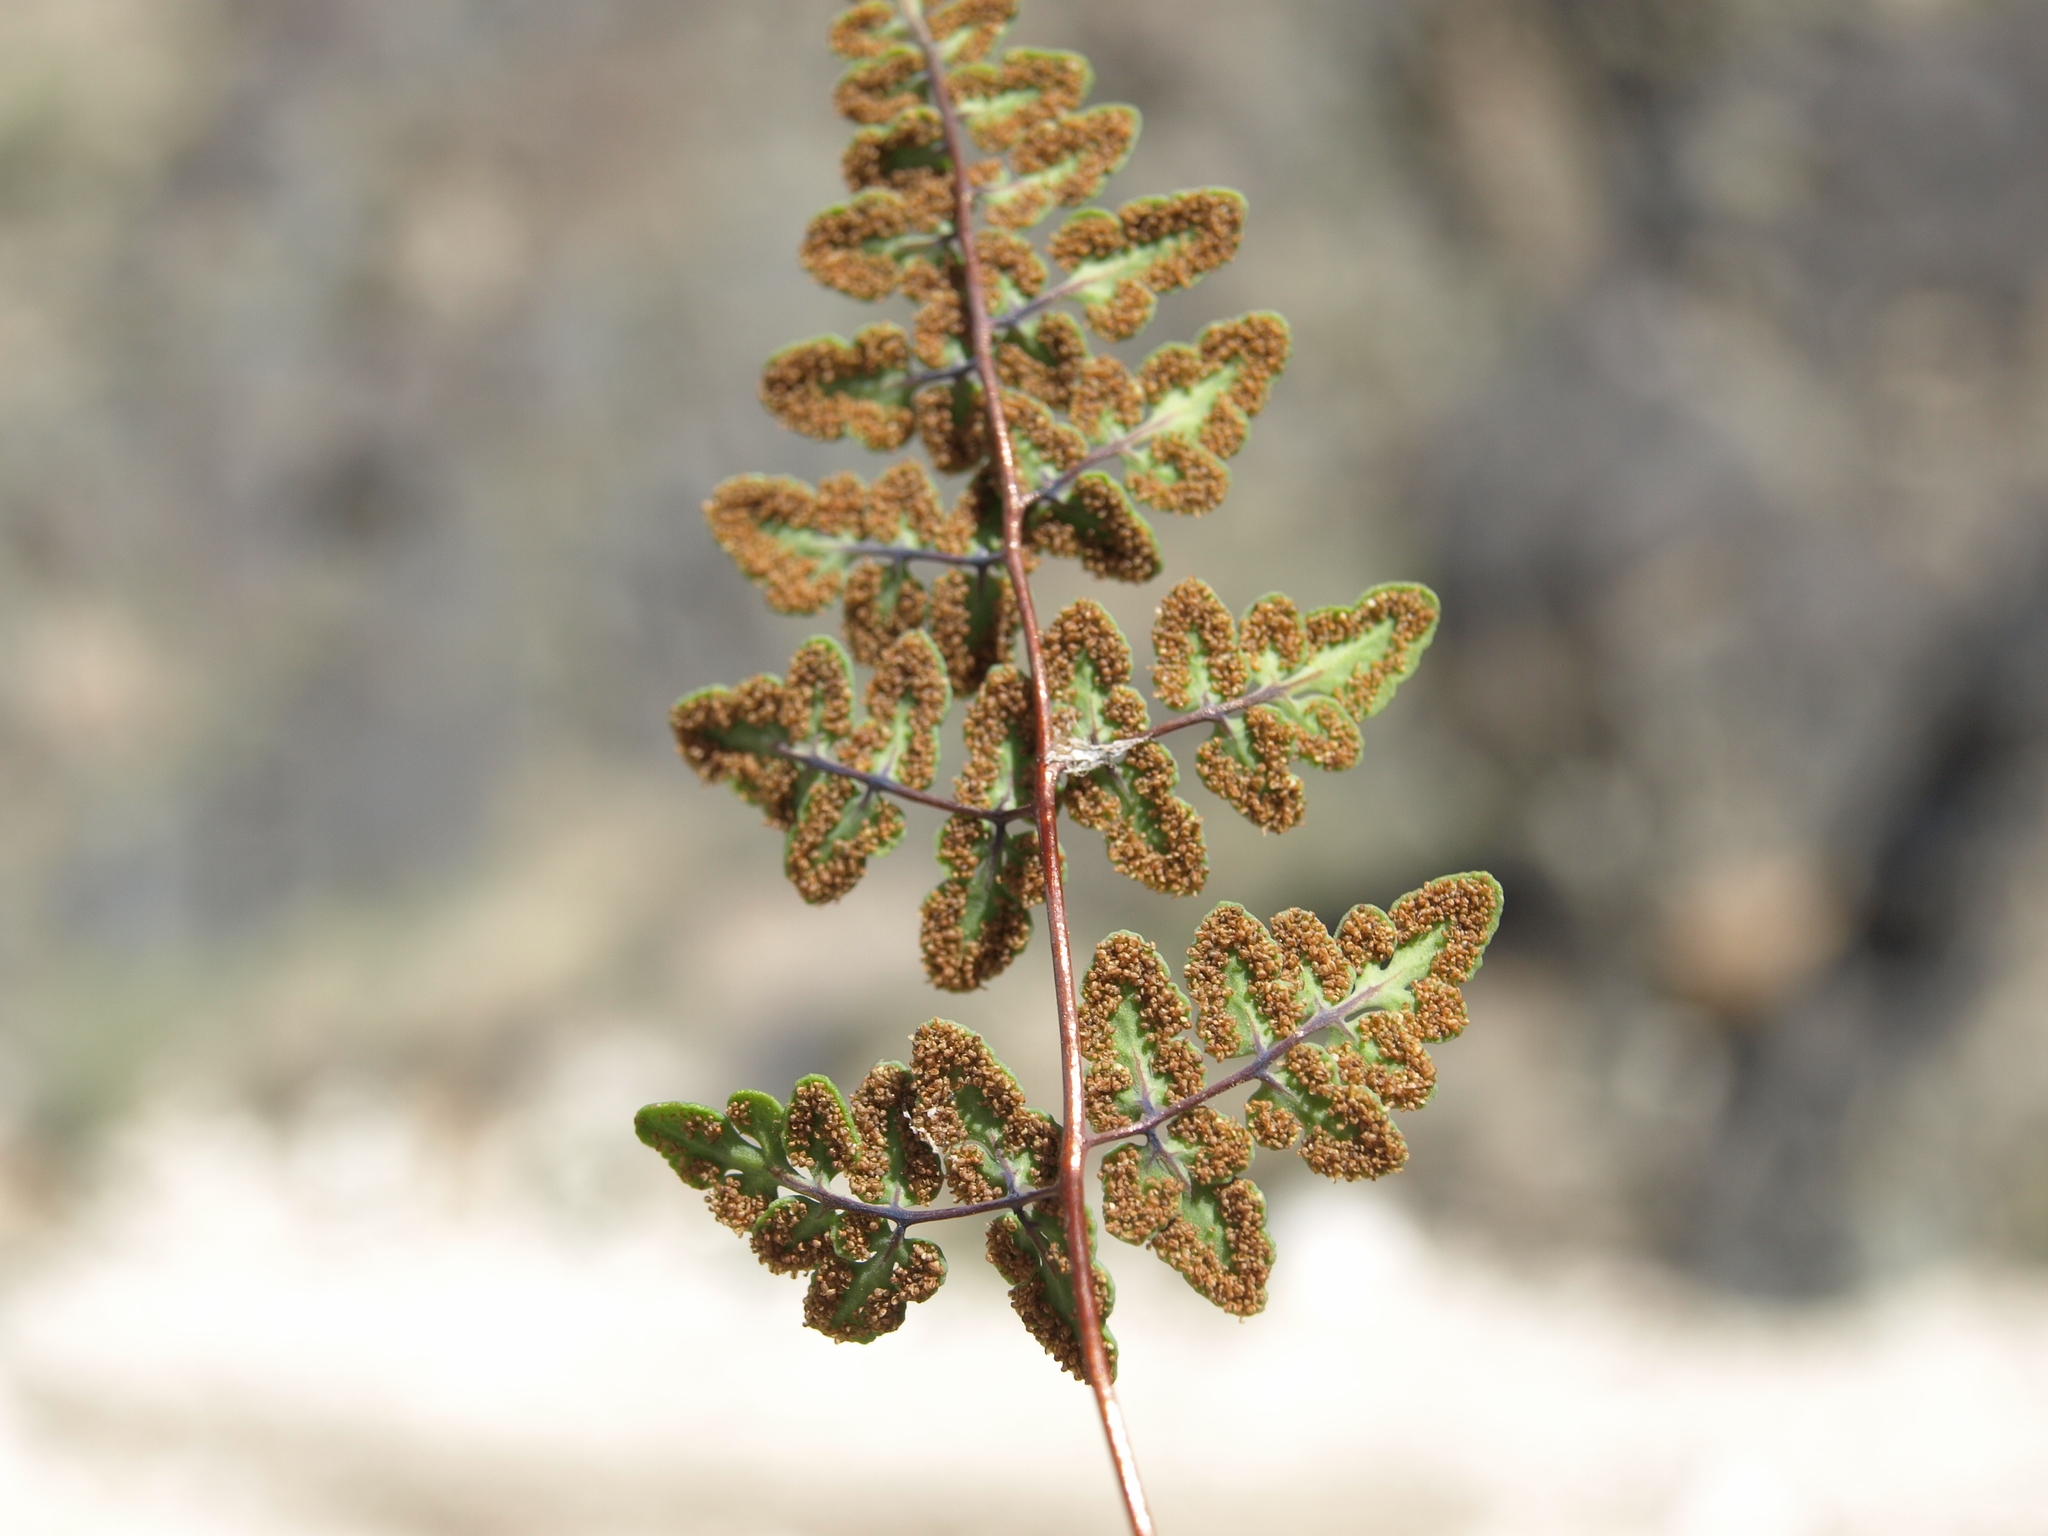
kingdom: Plantae
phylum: Tracheophyta
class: Polypodiopsida
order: Polypodiales
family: Pteridaceae
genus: Argyrochosma
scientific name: Argyrochosma jonesii
